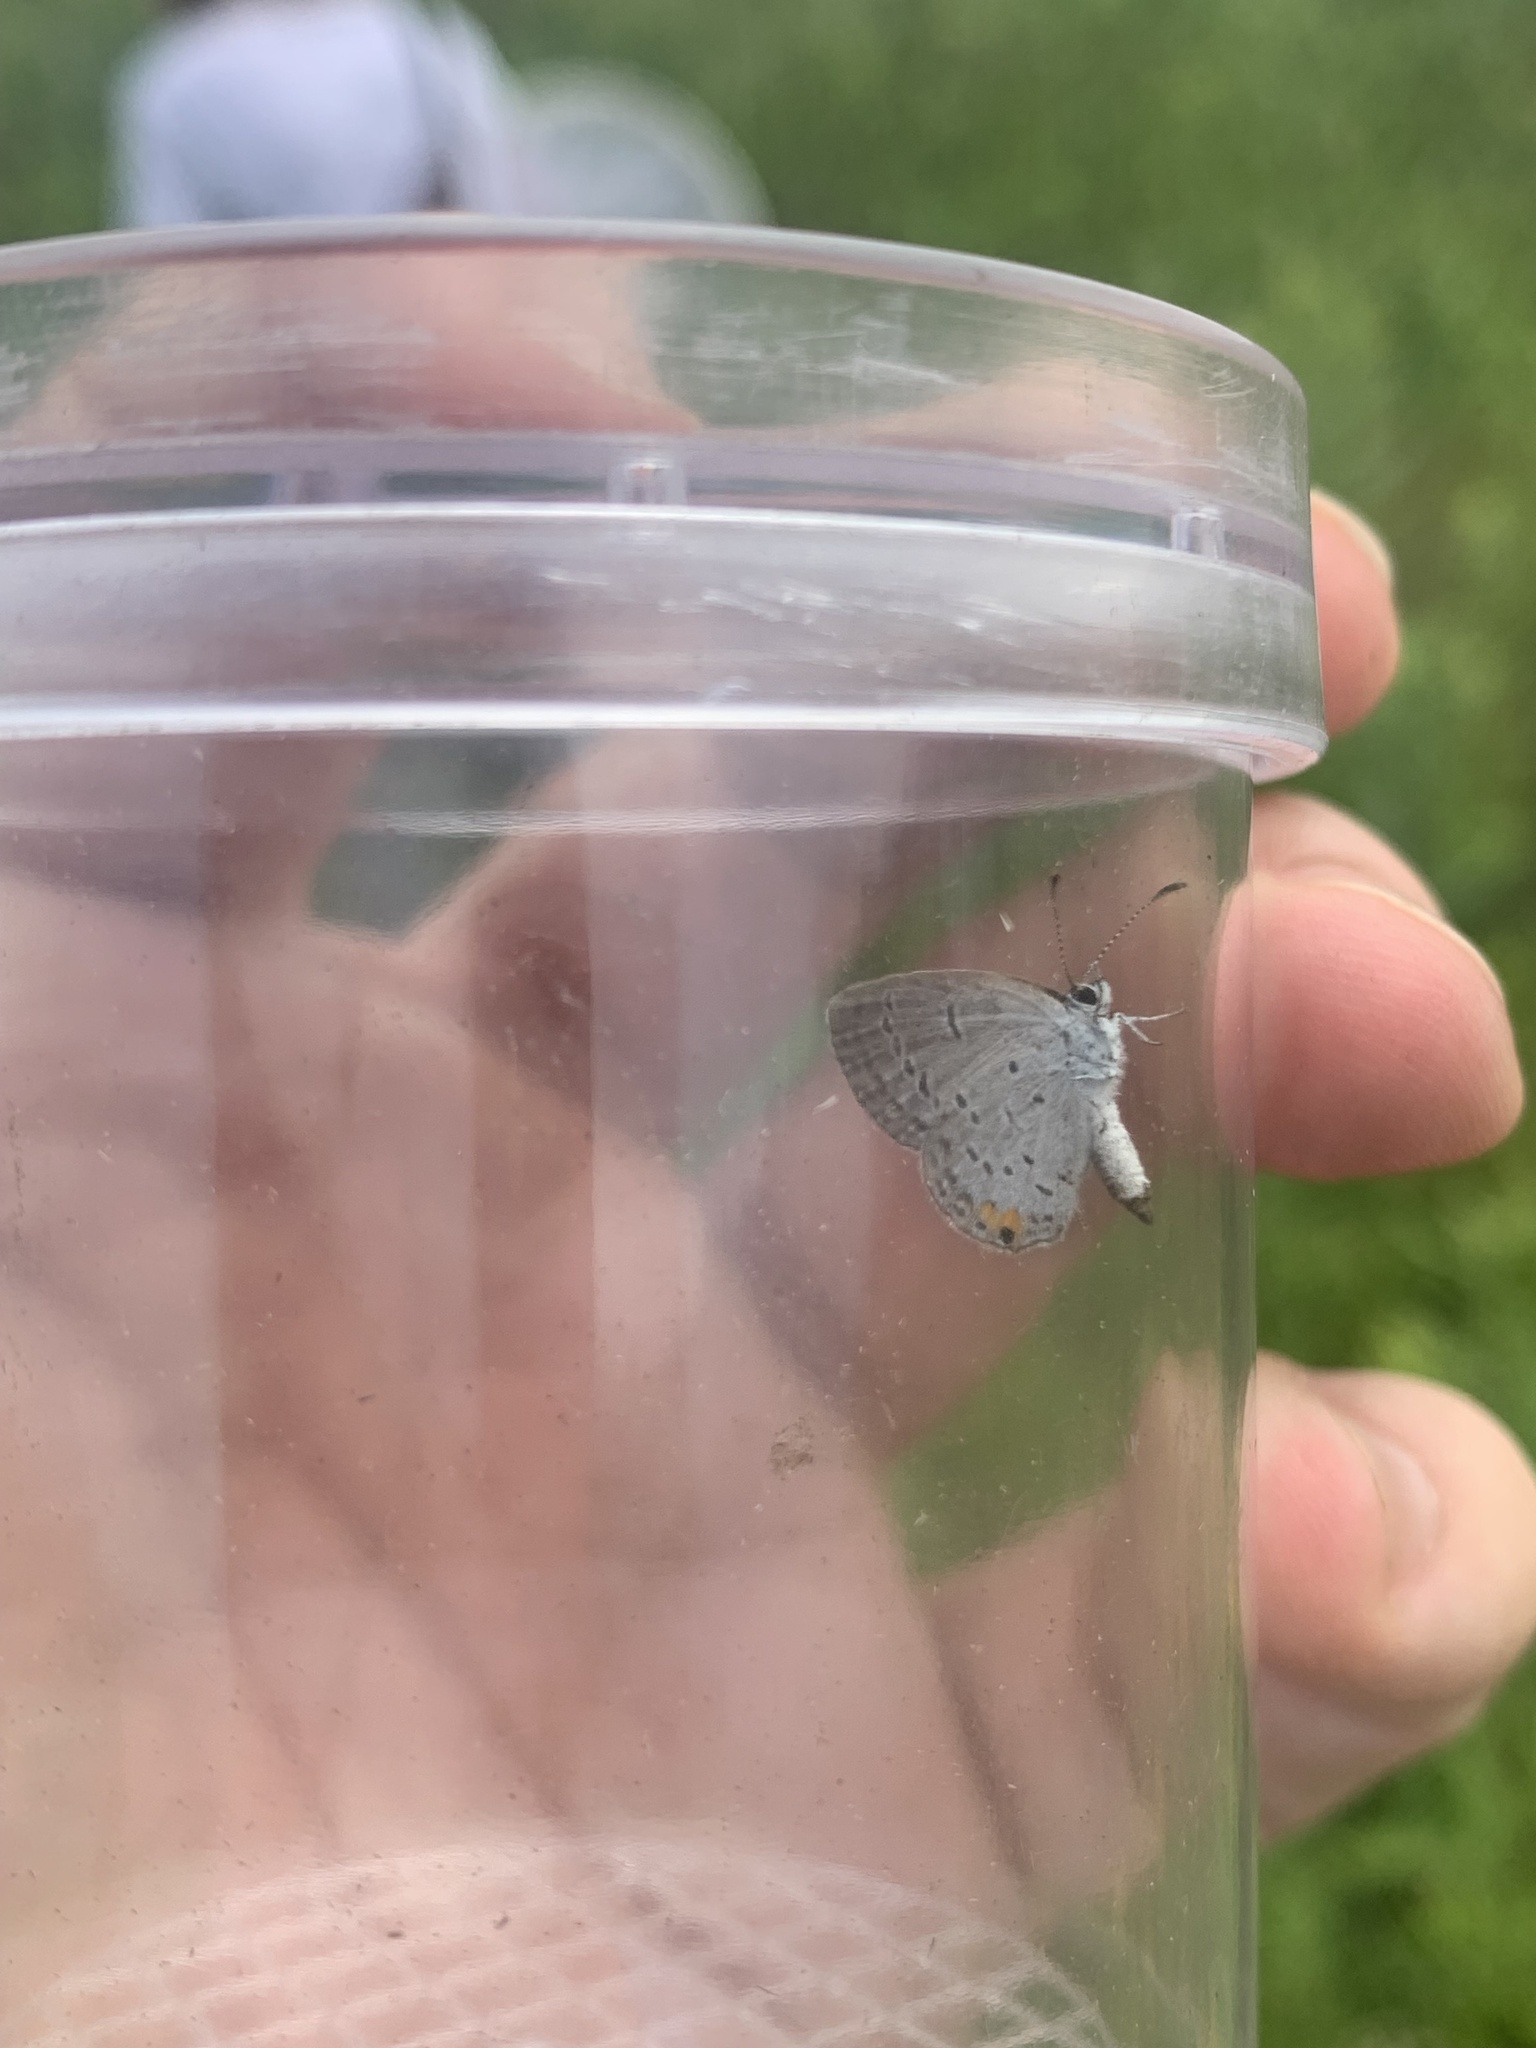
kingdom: Animalia
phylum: Arthropoda
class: Insecta
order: Lepidoptera
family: Lycaenidae
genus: Elkalyce
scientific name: Elkalyce comyntas
